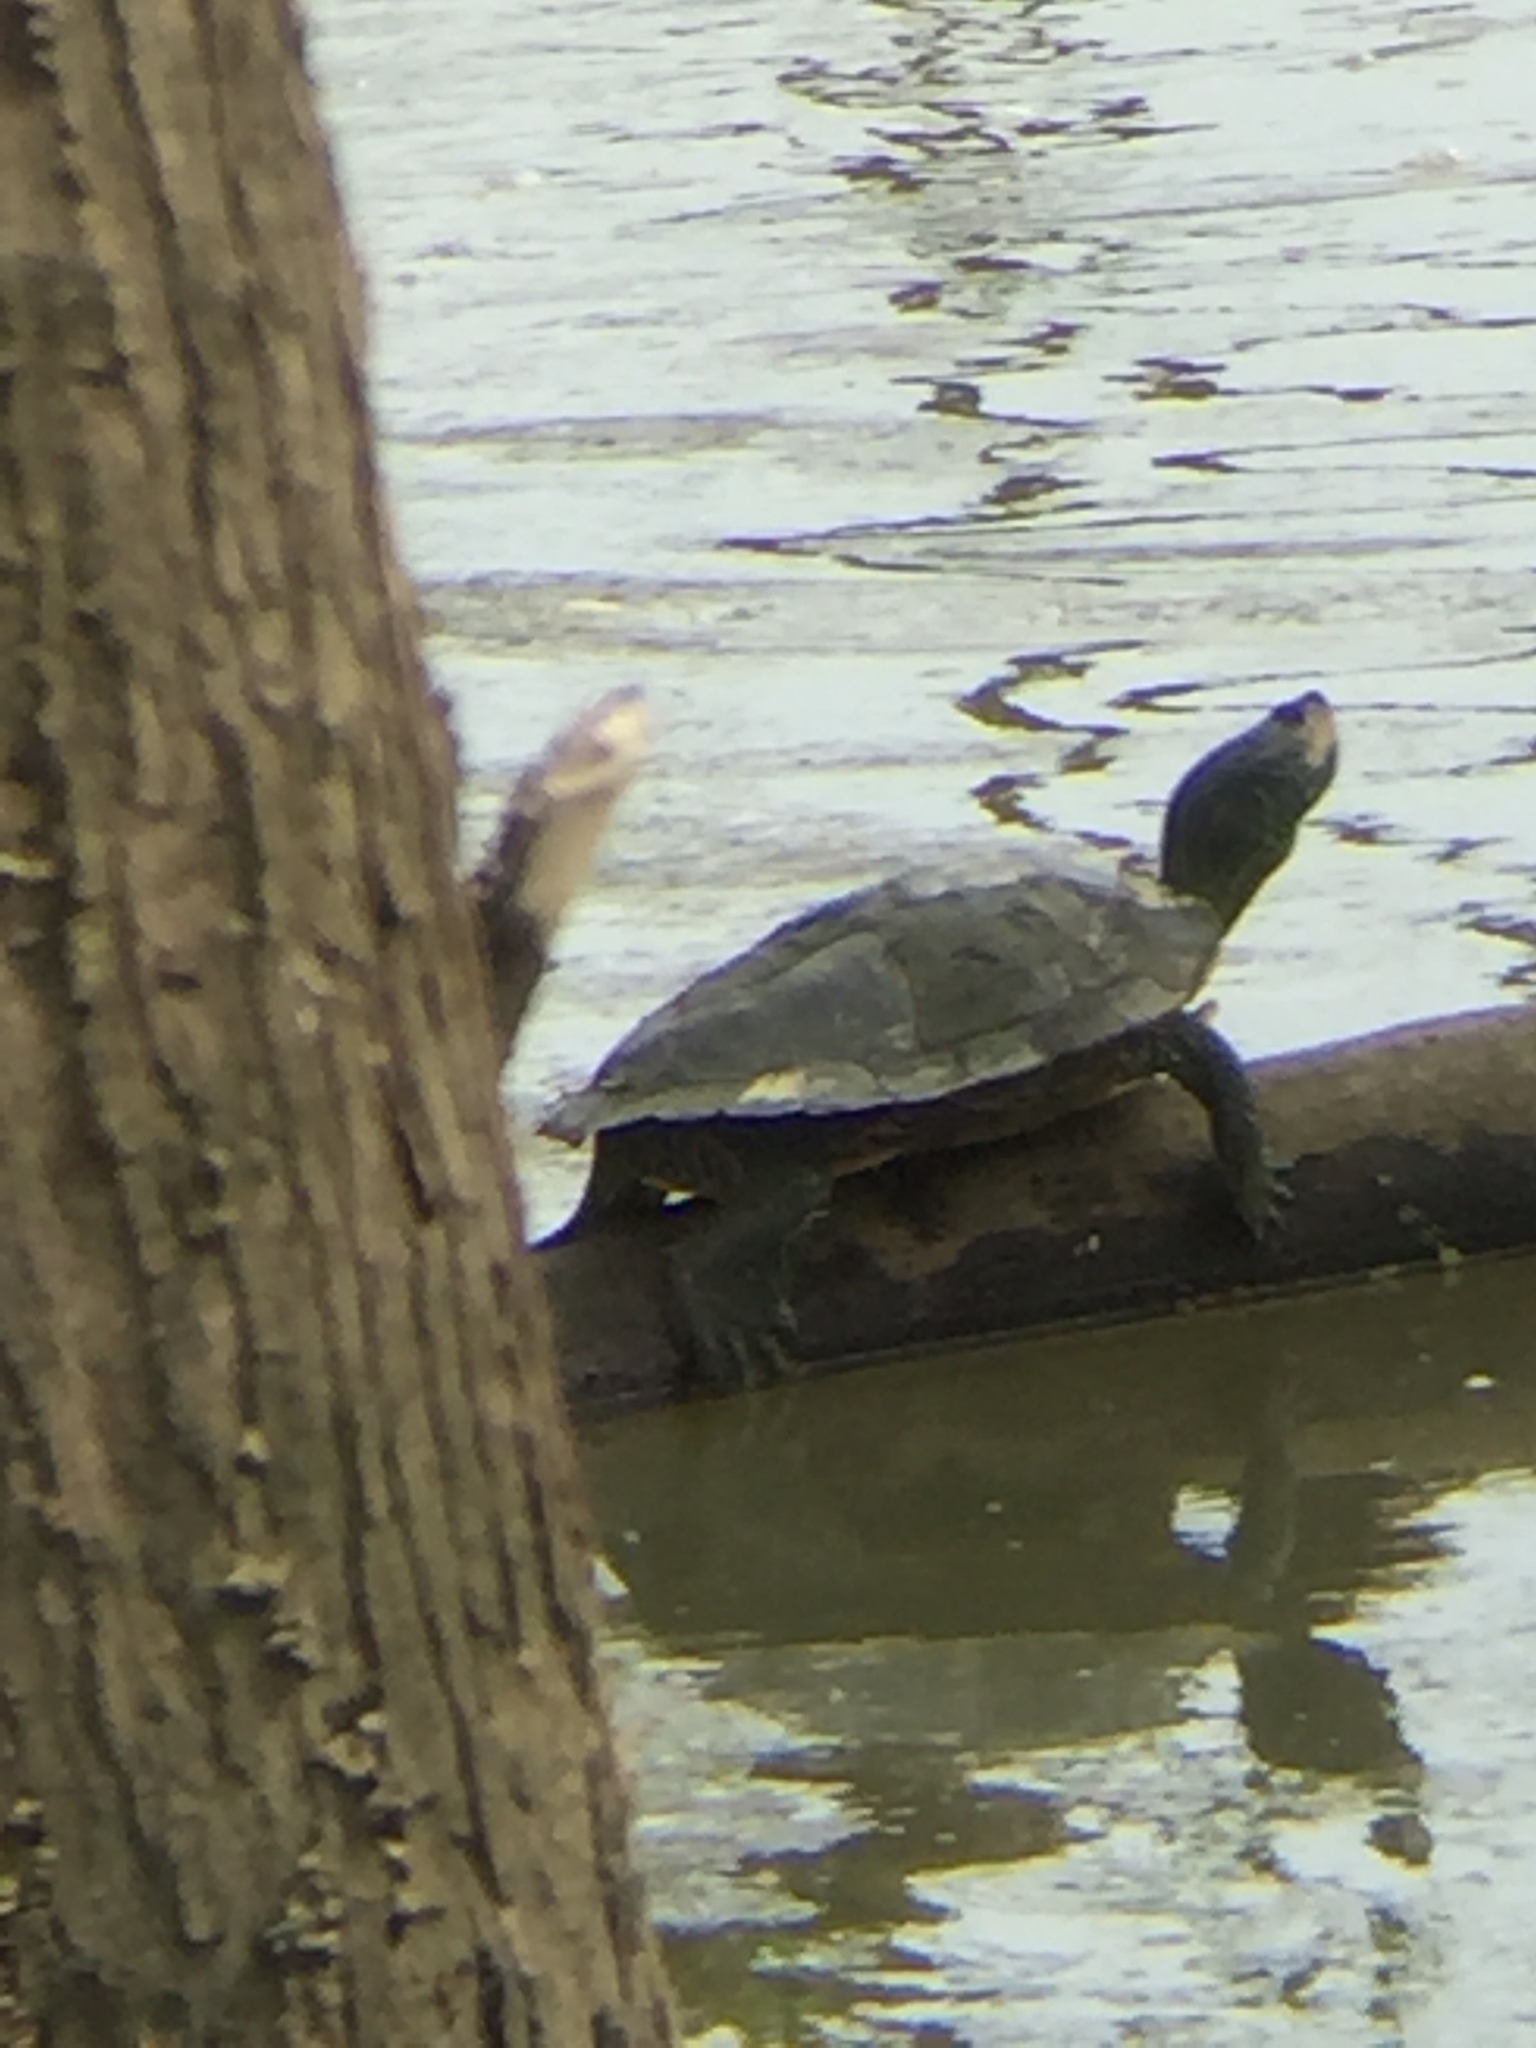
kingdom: Animalia
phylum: Chordata
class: Testudines
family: Emydidae
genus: Graptemys
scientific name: Graptemys geographica
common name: Common map turtle
